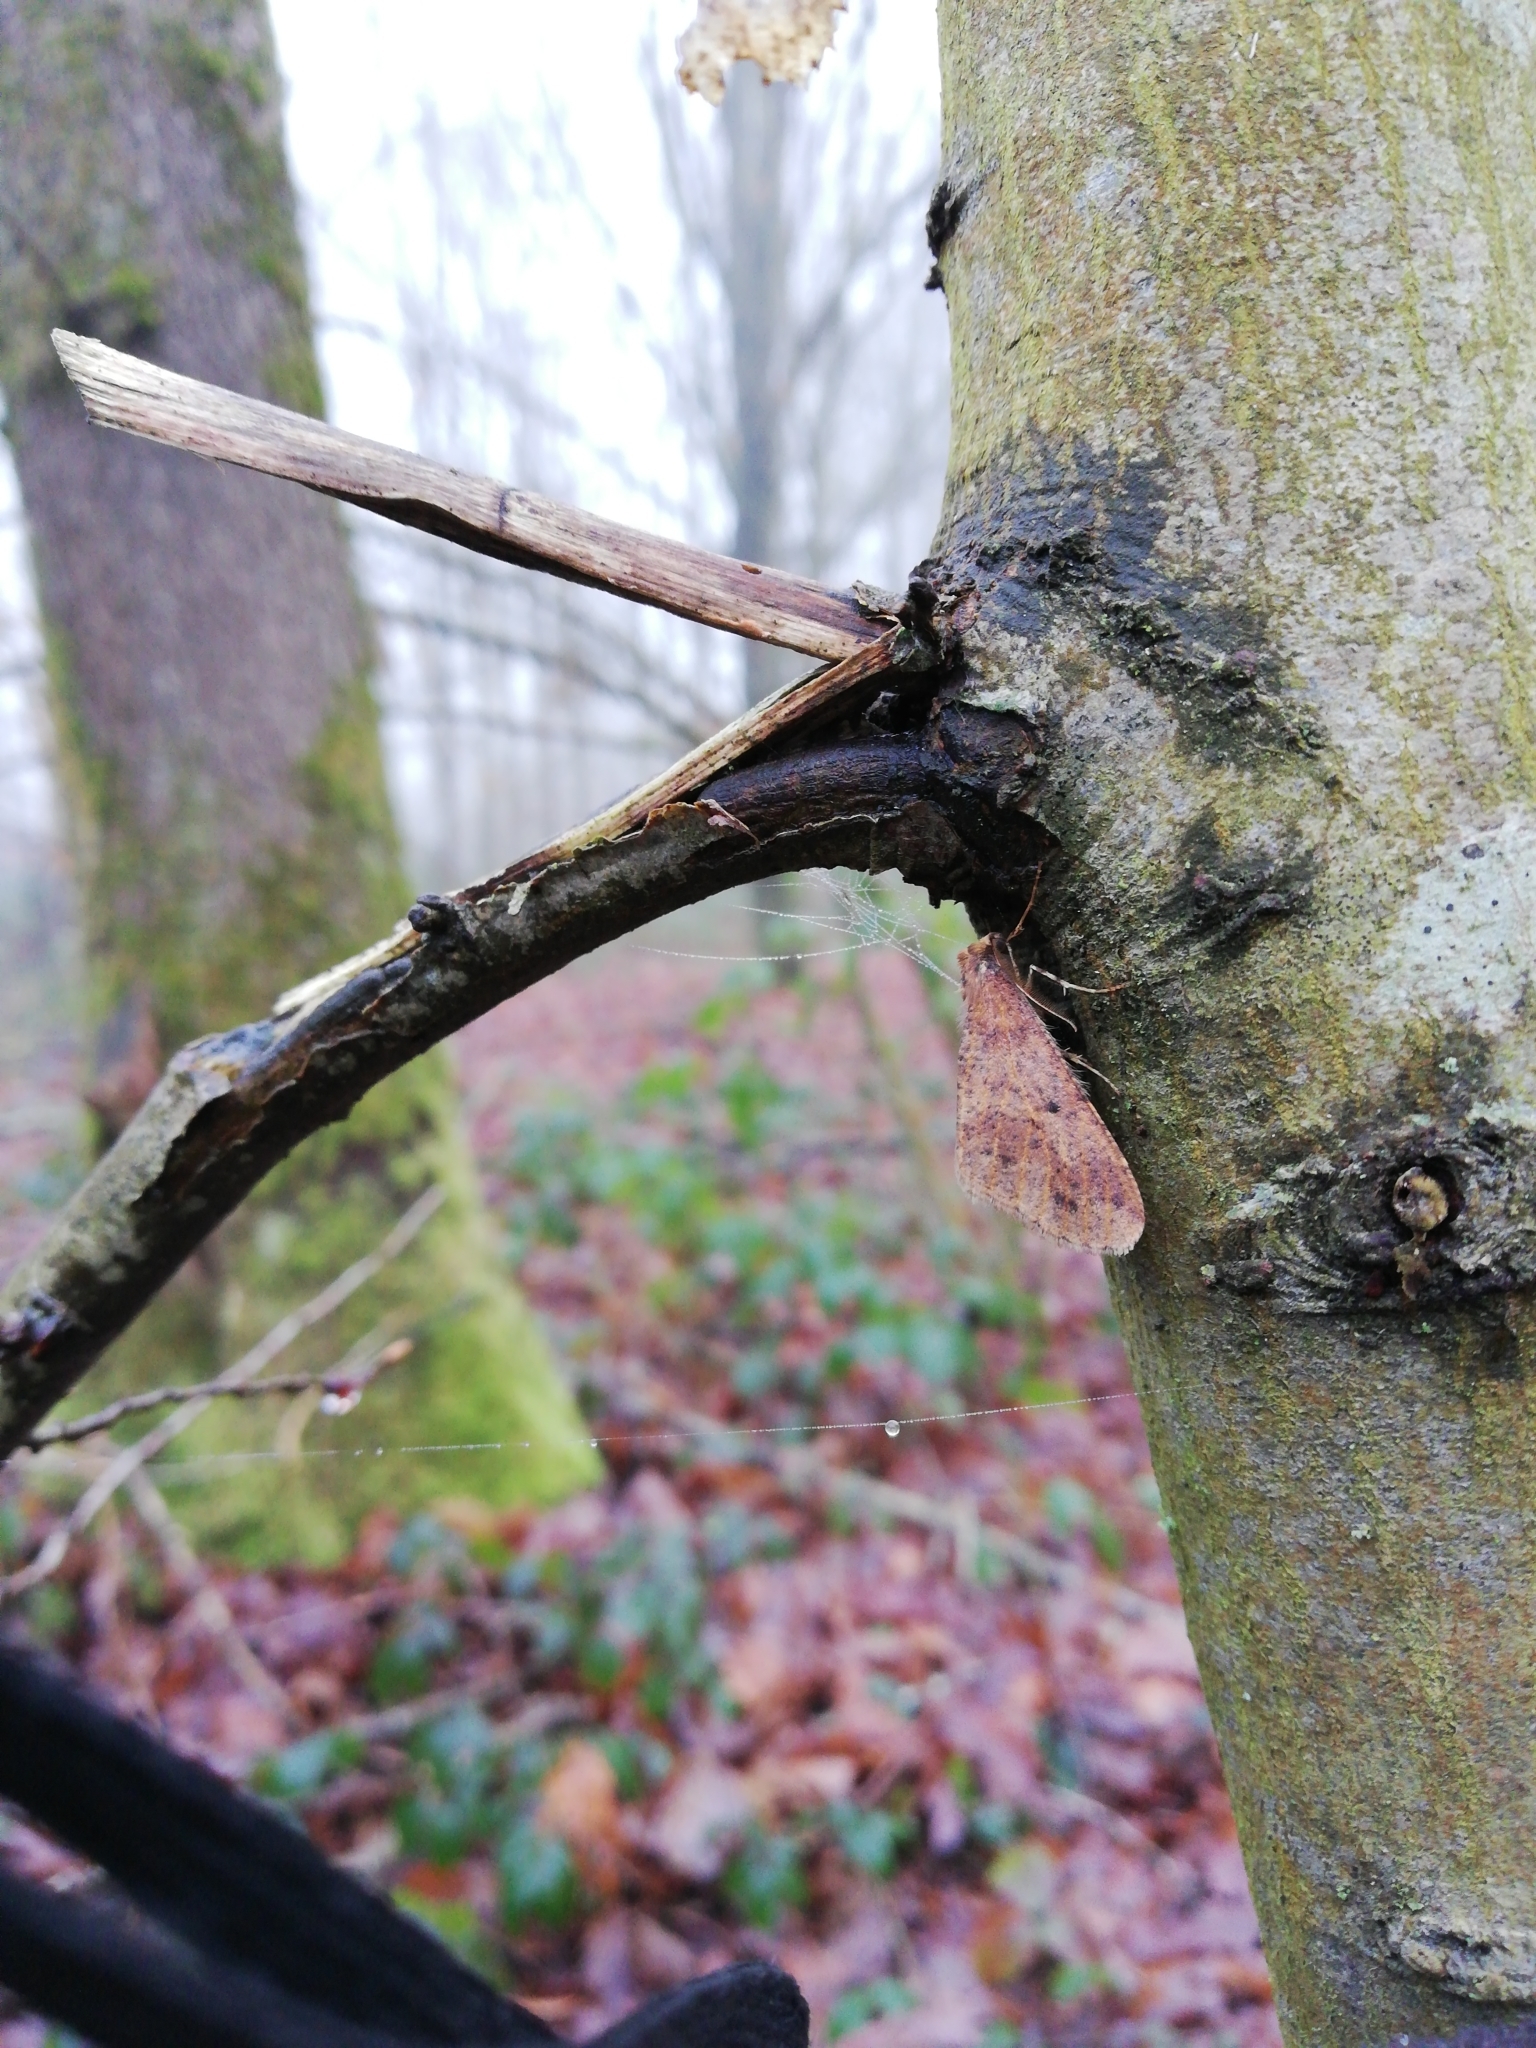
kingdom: Animalia
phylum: Arthropoda
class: Insecta
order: Lepidoptera
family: Geometridae
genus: Erannis
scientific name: Erannis defoliaria
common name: Mottled umber
